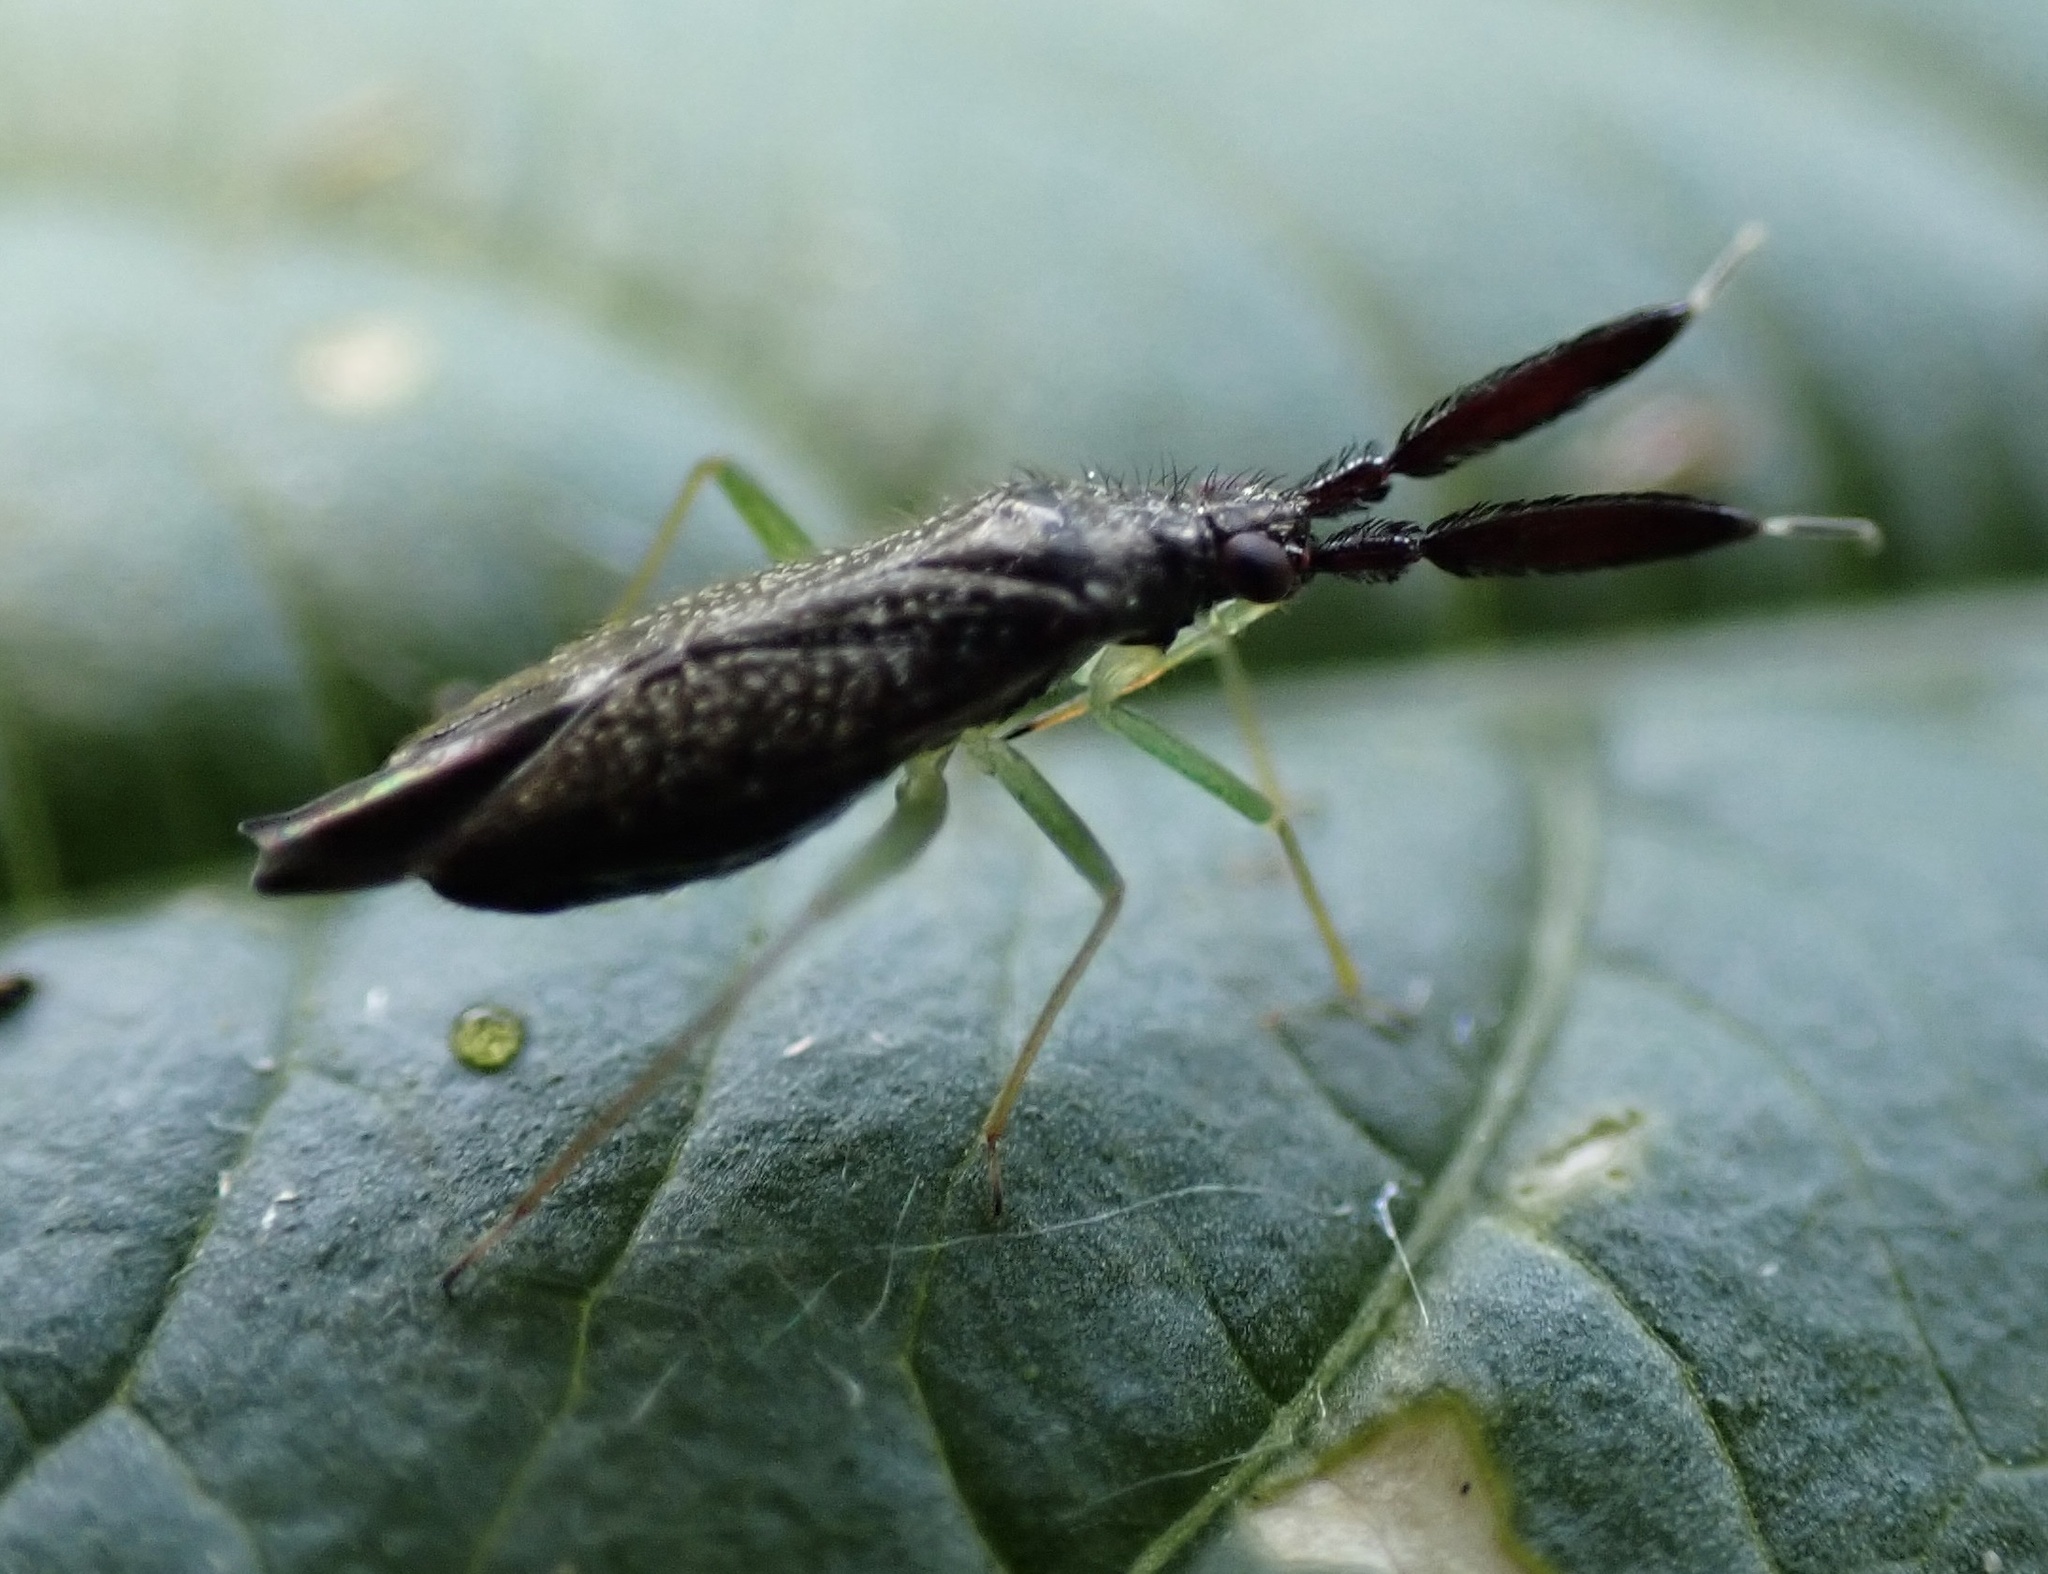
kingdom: Animalia
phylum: Arthropoda
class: Insecta
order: Hemiptera
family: Miridae
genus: Heterotoma
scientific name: Heterotoma planicornis
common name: Plant bug
